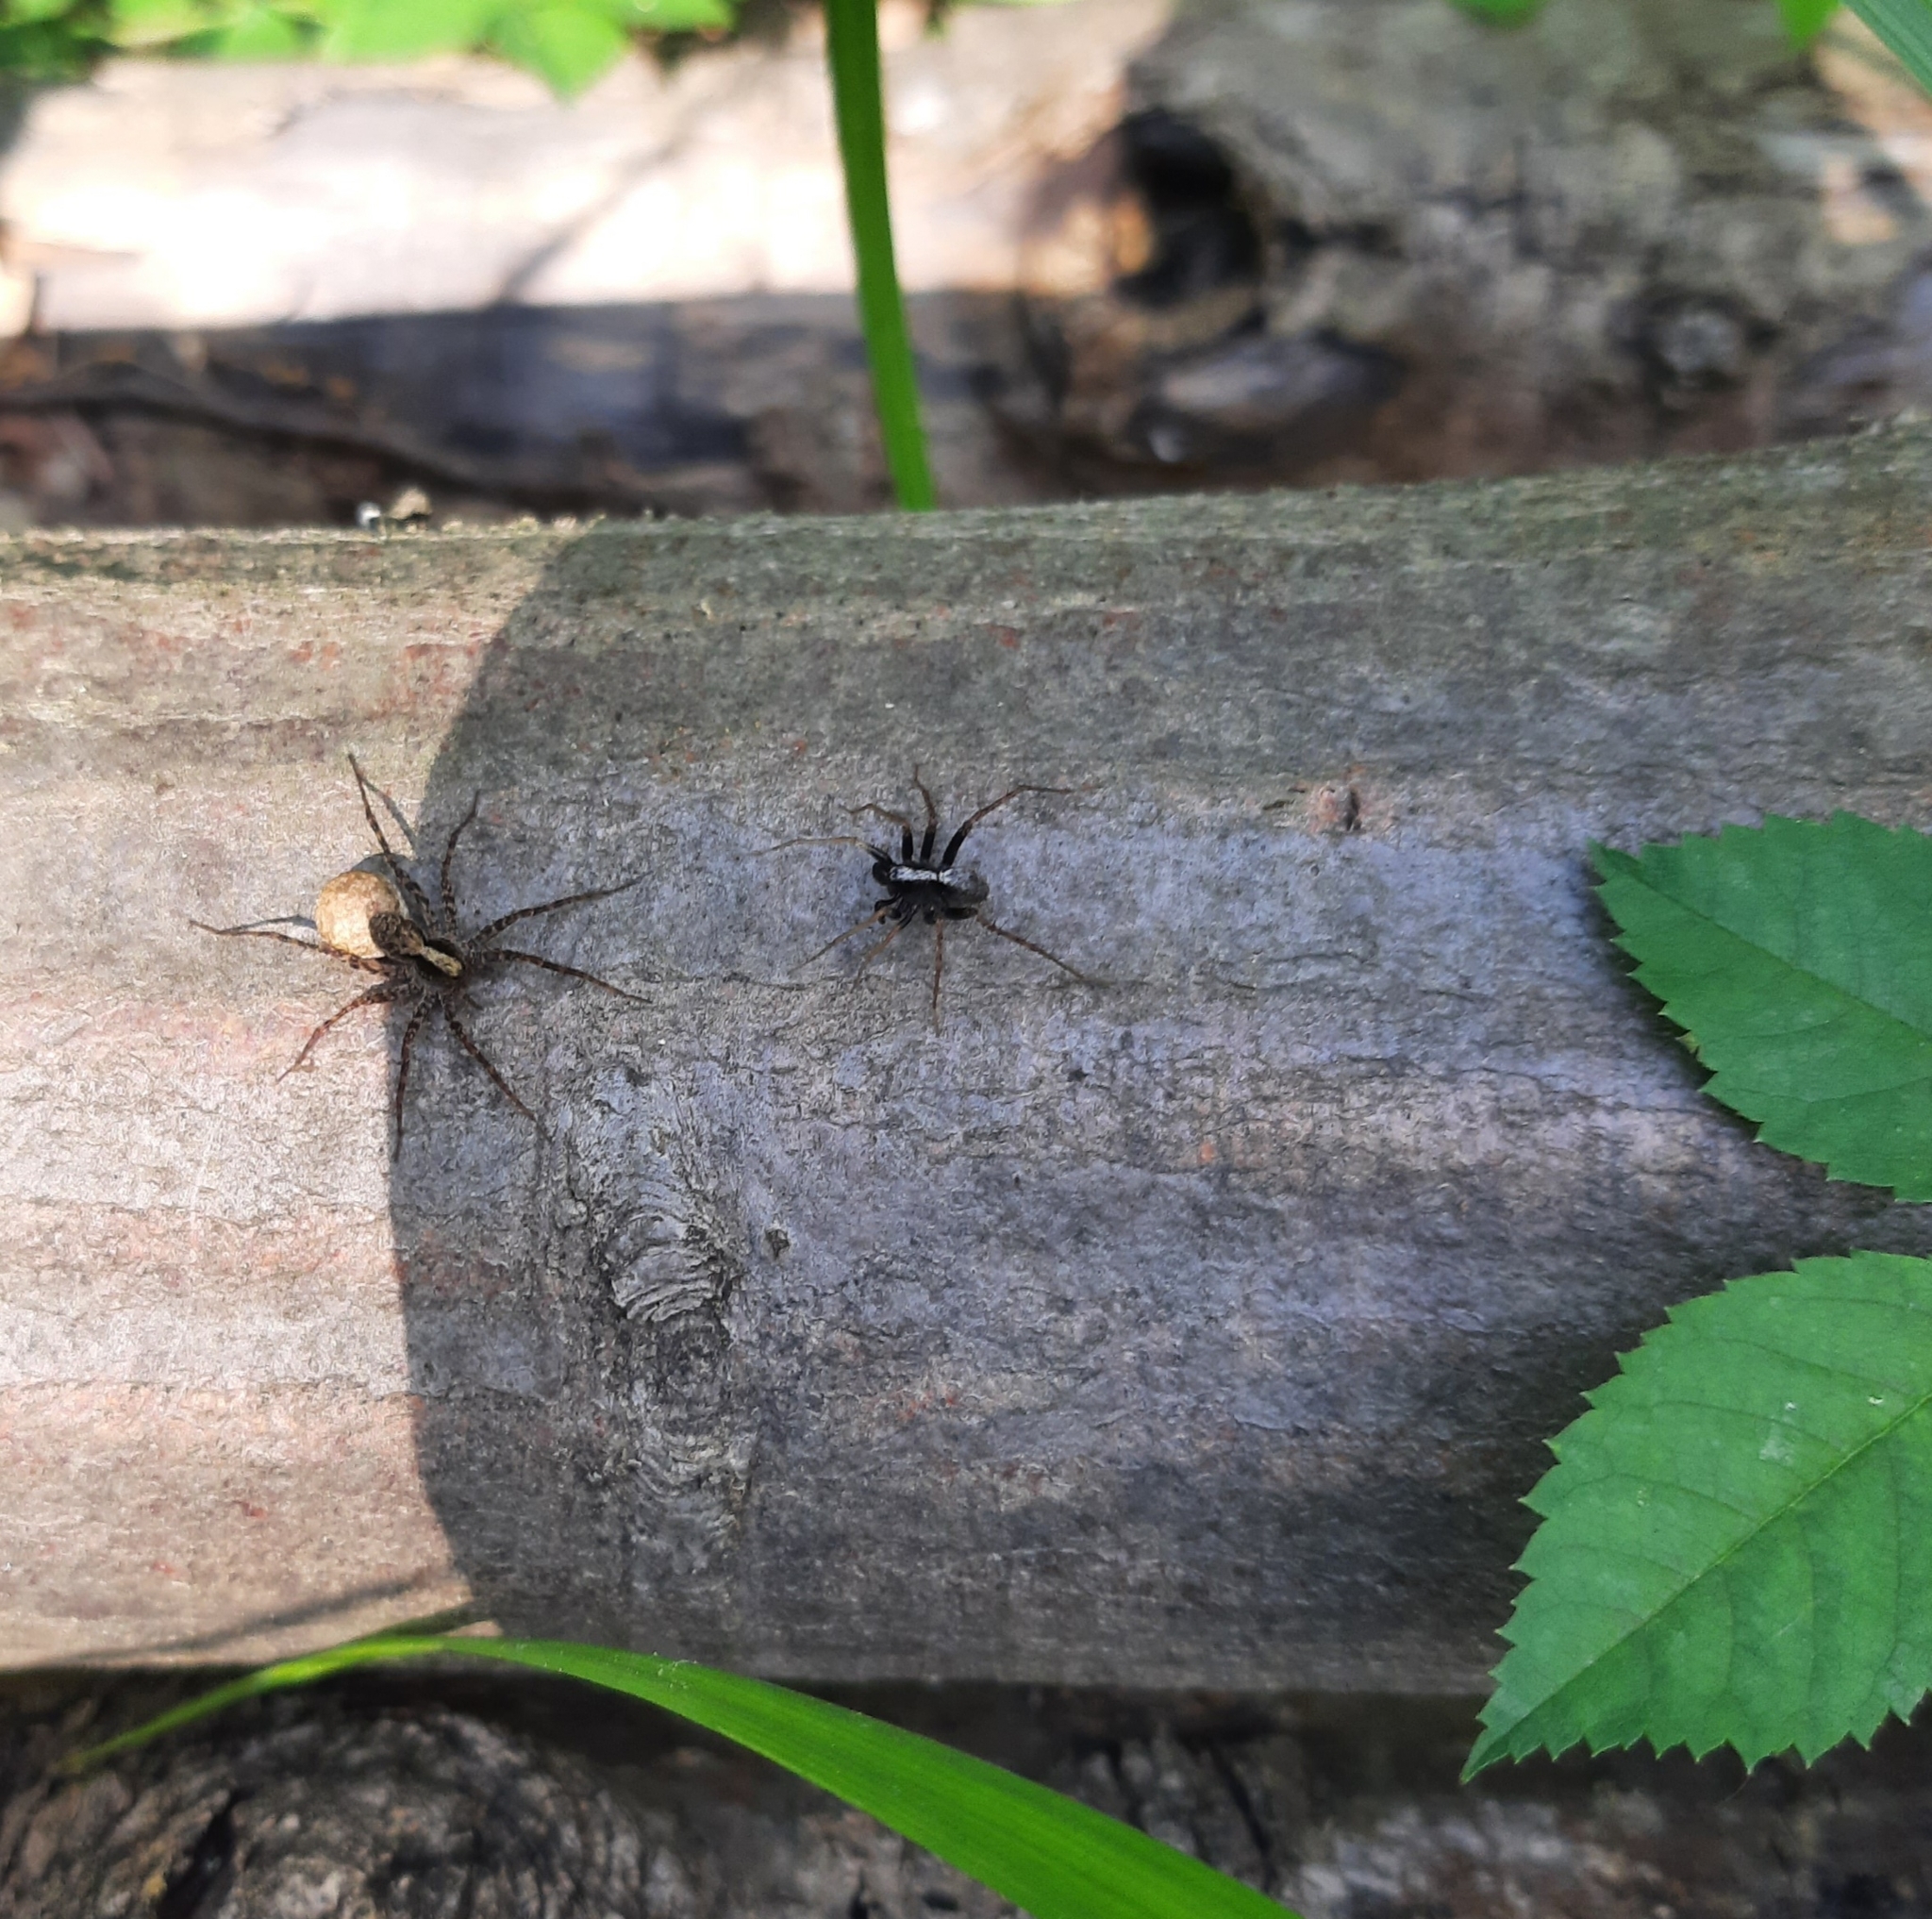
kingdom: Animalia
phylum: Arthropoda
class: Arachnida
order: Araneae
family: Lycosidae
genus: Pardosa
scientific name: Pardosa
